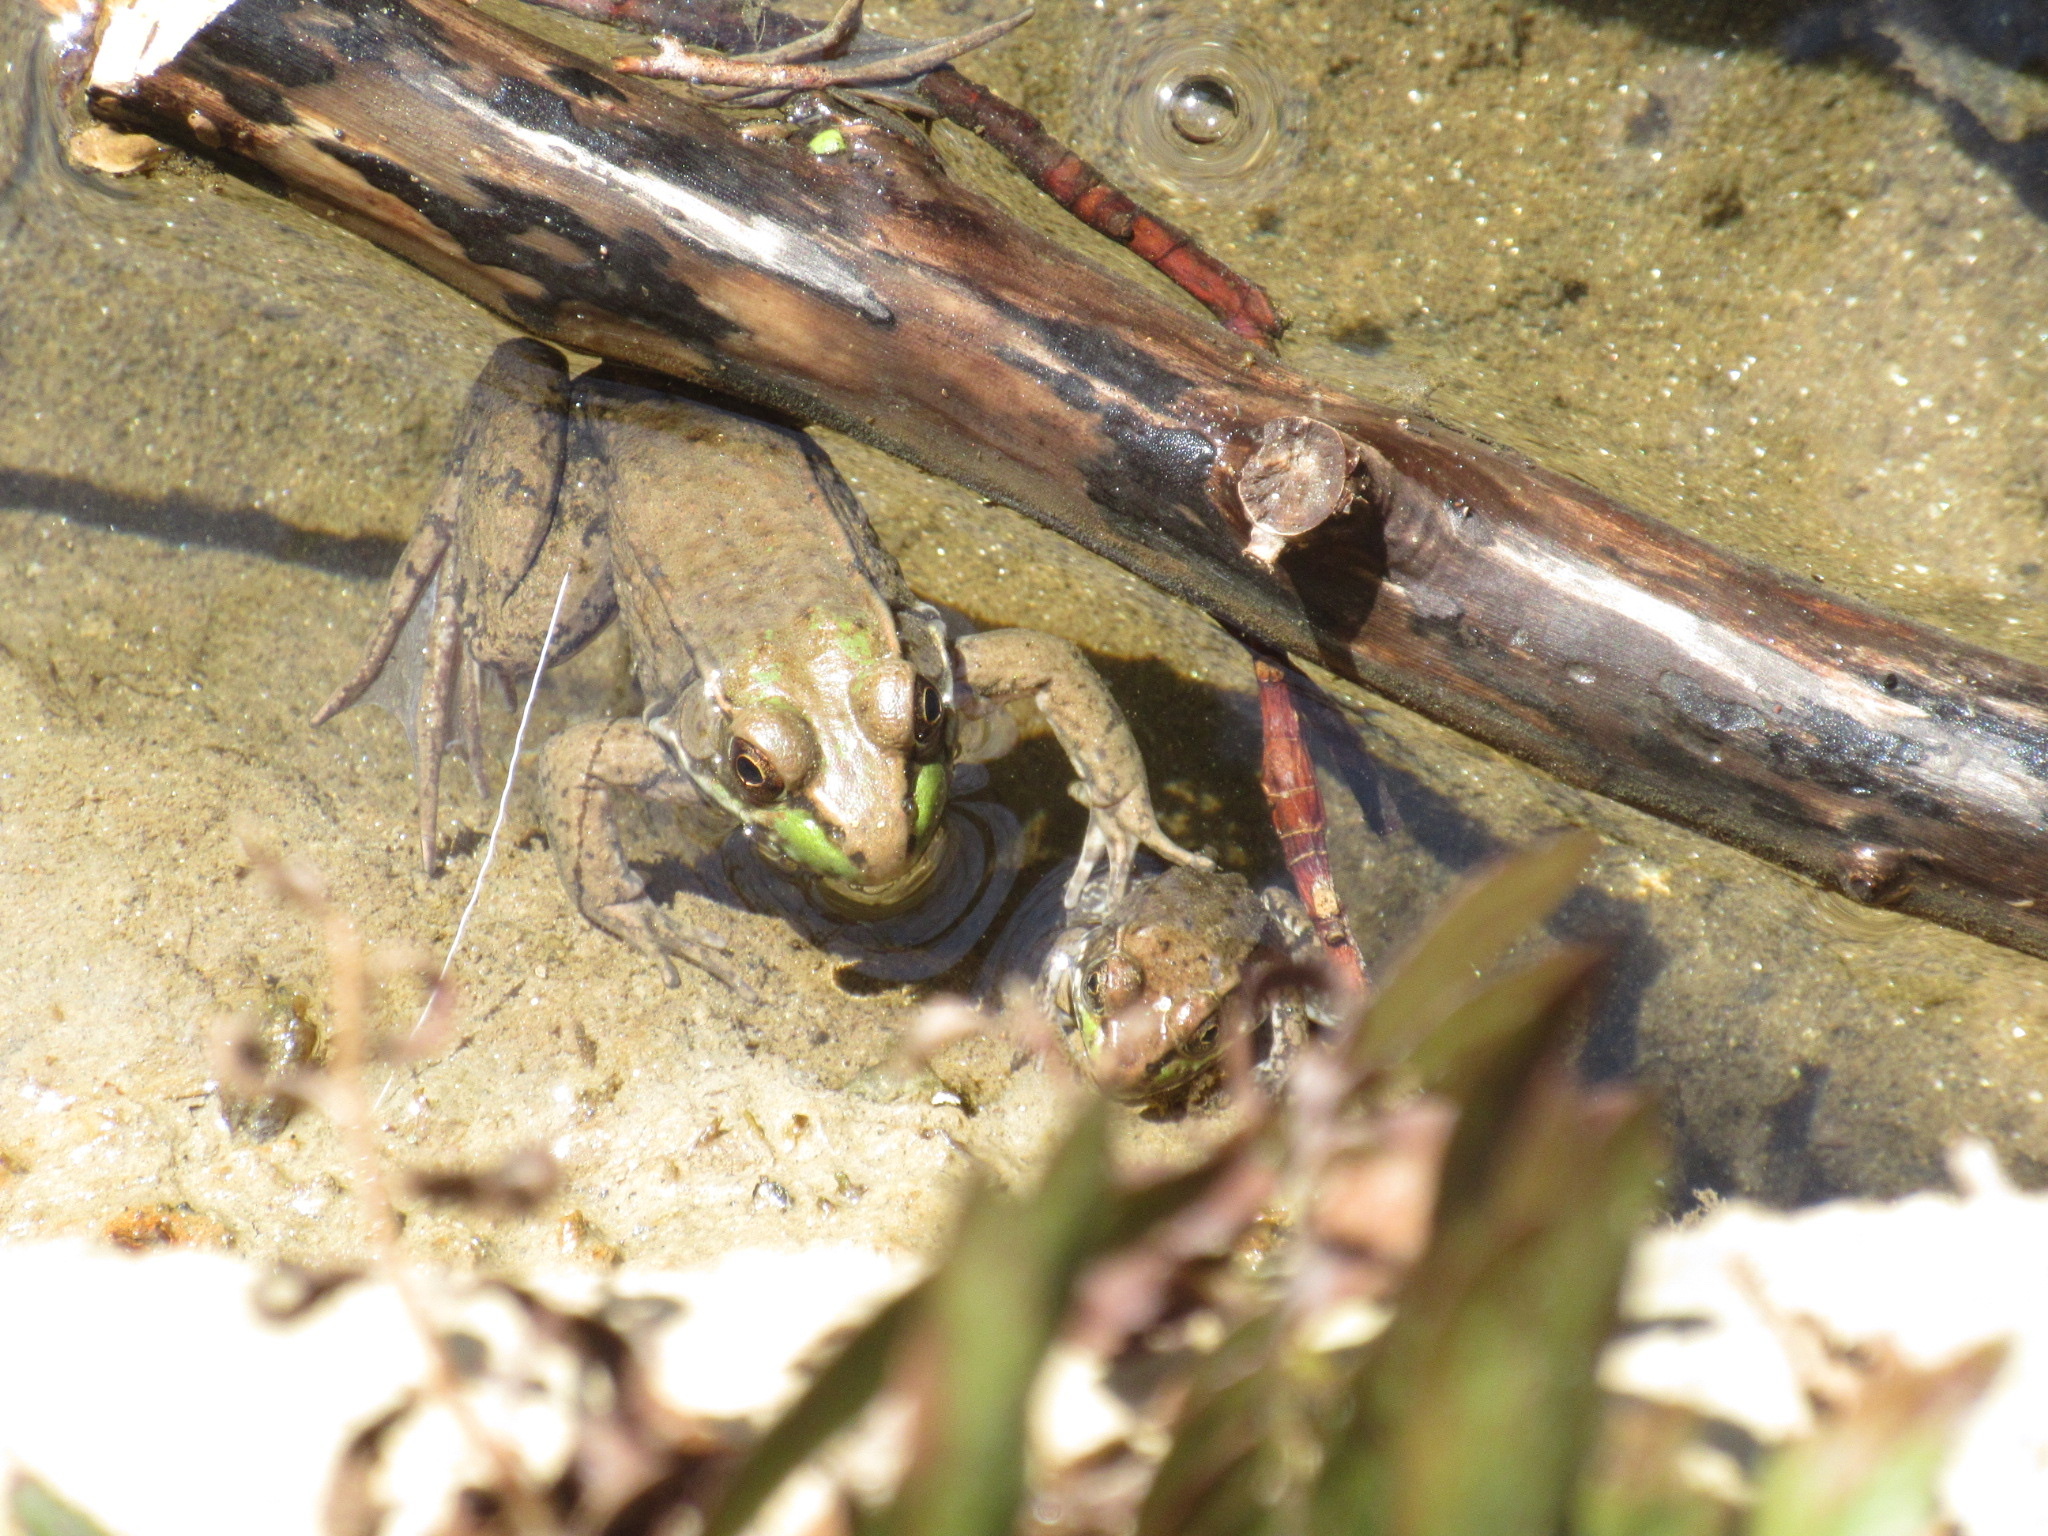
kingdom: Animalia
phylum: Chordata
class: Amphibia
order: Anura
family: Ranidae
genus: Lithobates
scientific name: Lithobates clamitans
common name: Green frog
